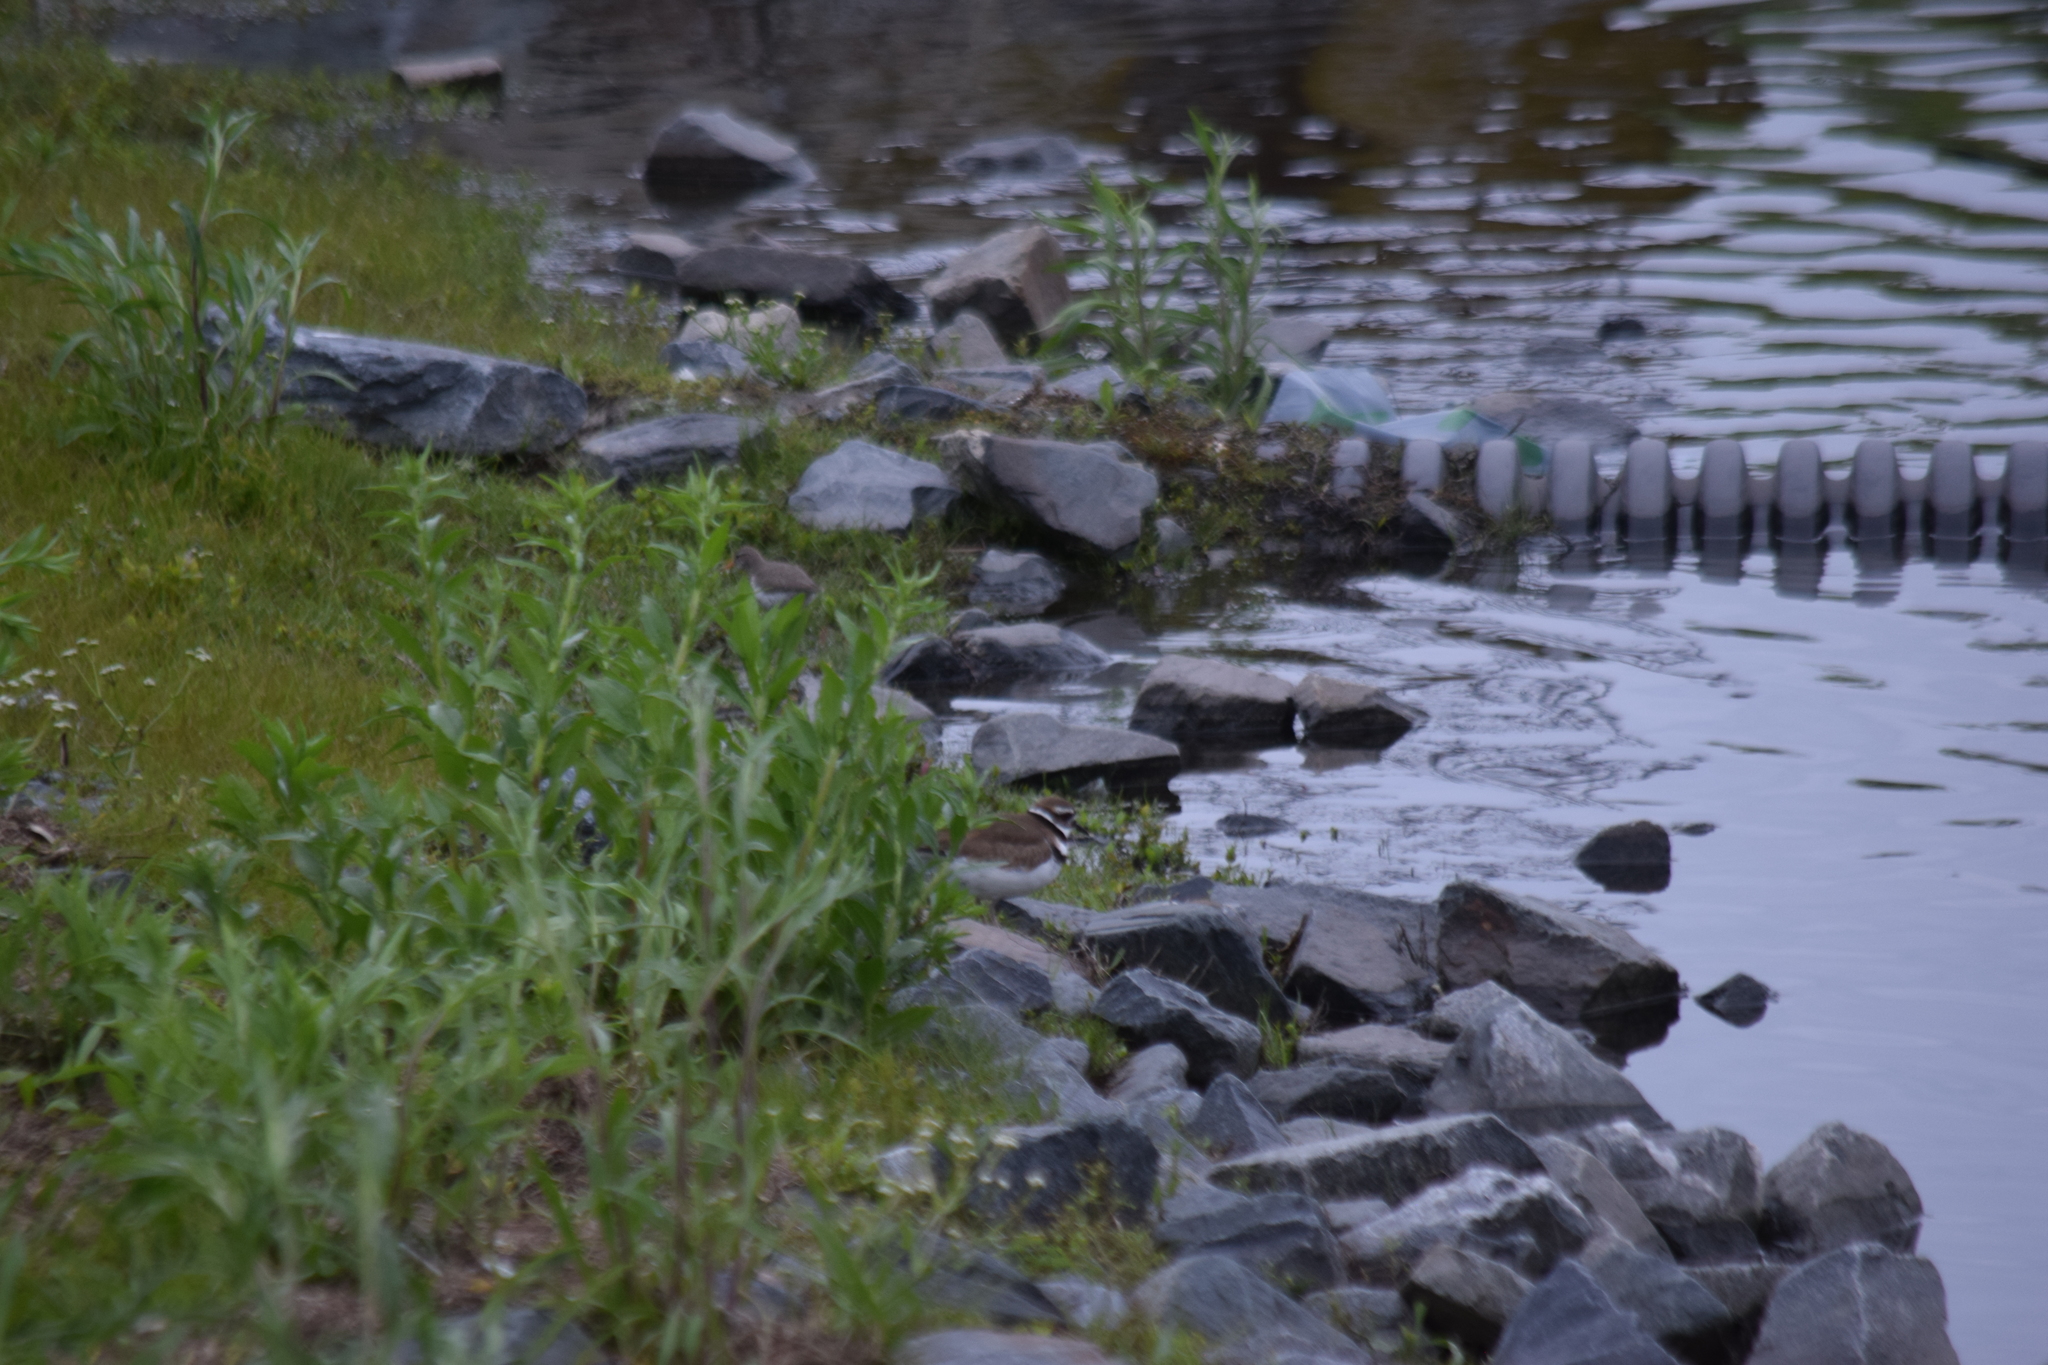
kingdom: Animalia
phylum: Chordata
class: Aves
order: Charadriiformes
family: Charadriidae
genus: Charadrius
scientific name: Charadrius vociferus
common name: Killdeer
